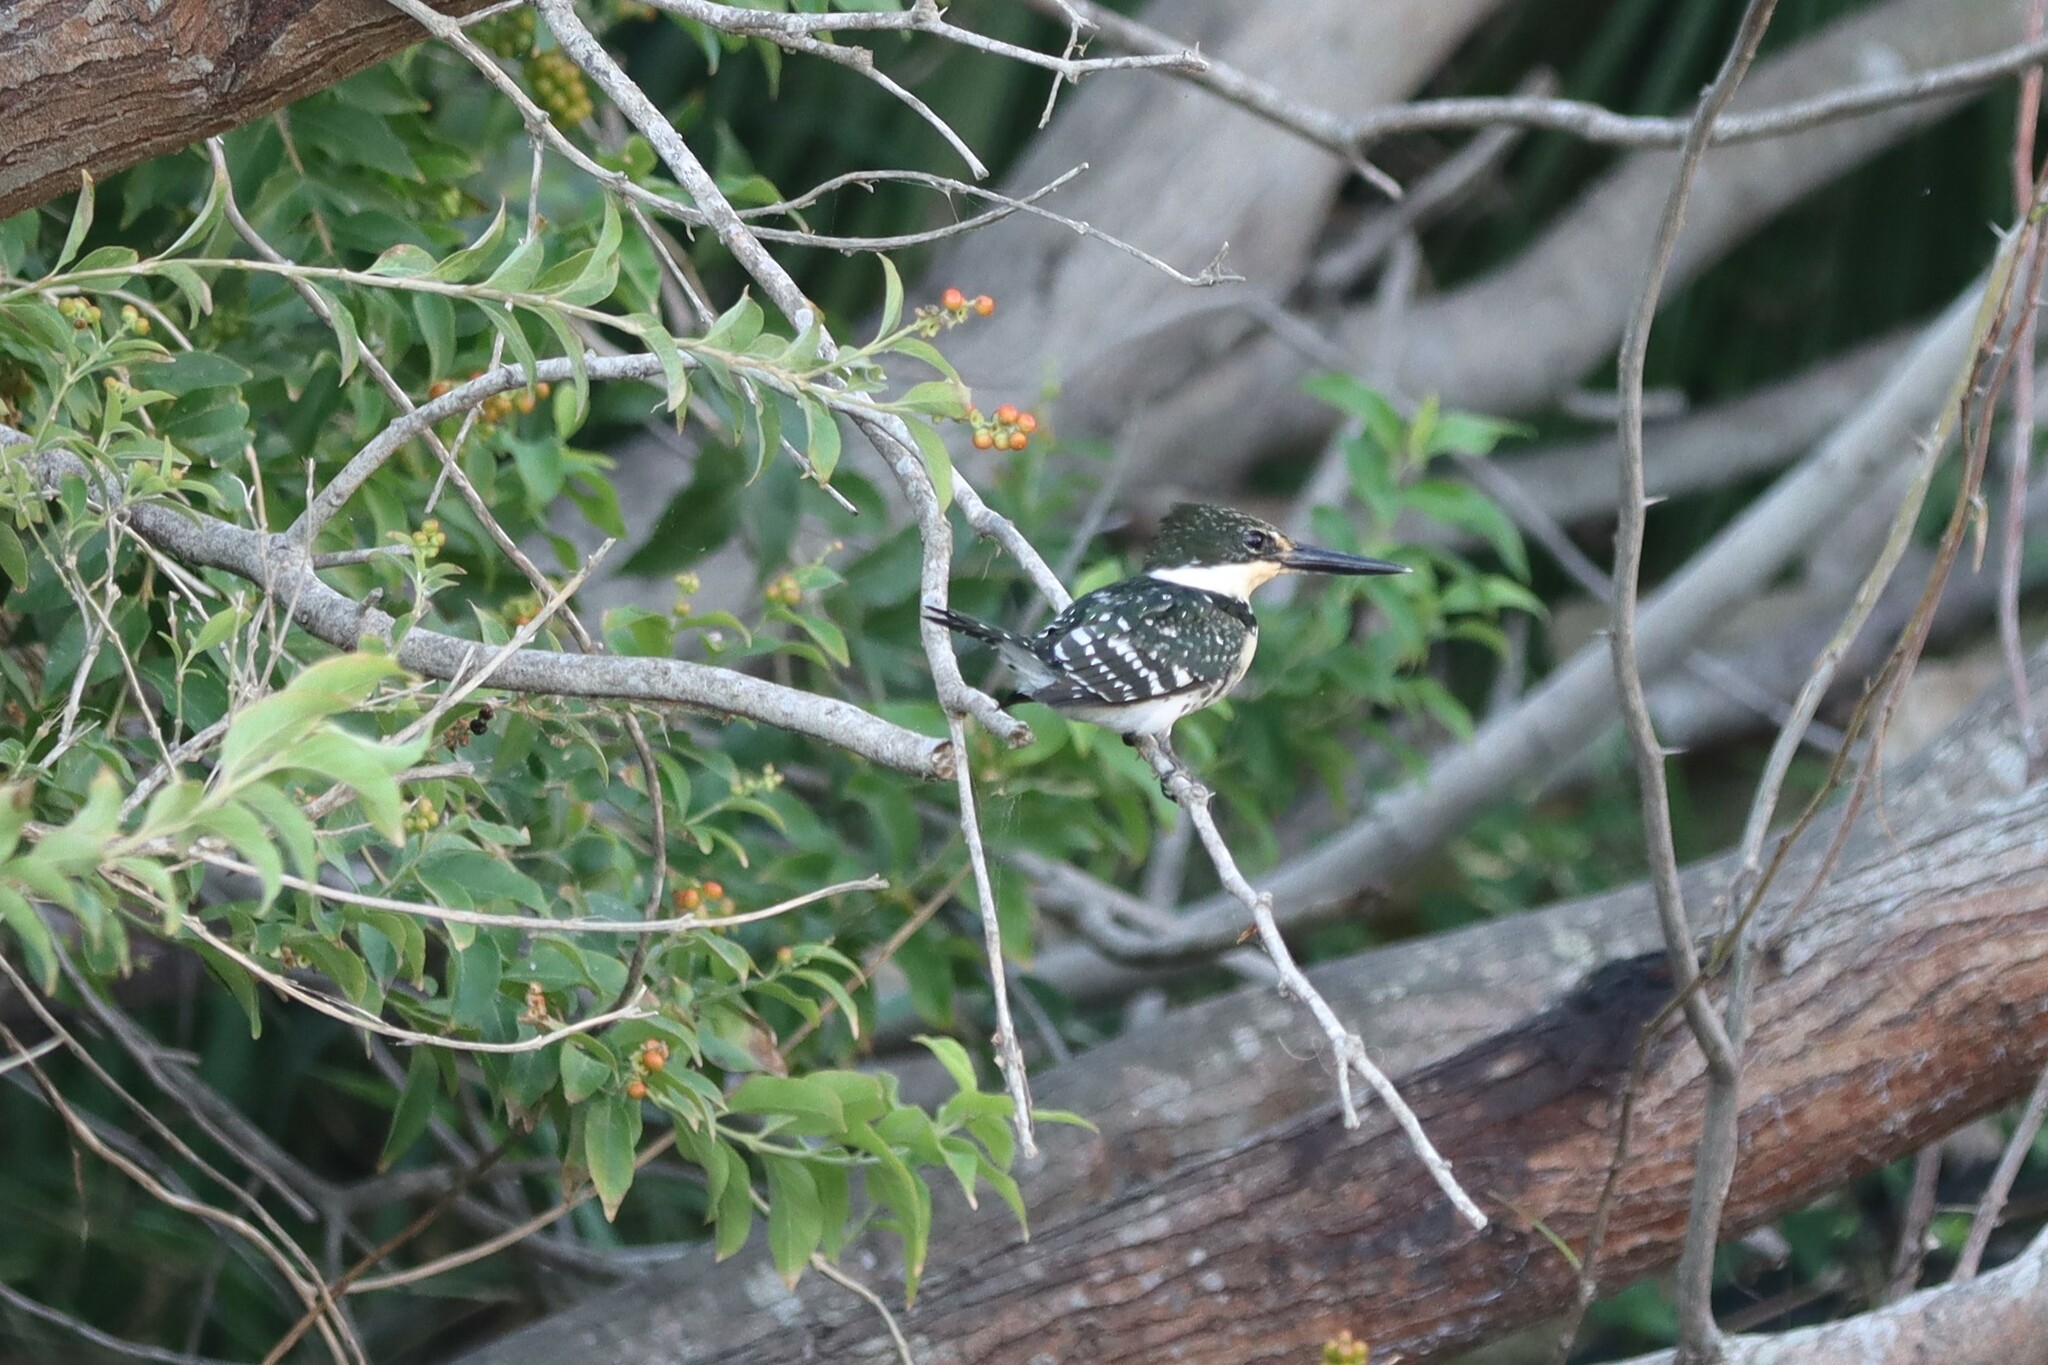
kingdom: Animalia
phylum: Chordata
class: Aves
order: Coraciiformes
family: Alcedinidae
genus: Chloroceryle
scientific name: Chloroceryle americana
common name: Green kingfisher
